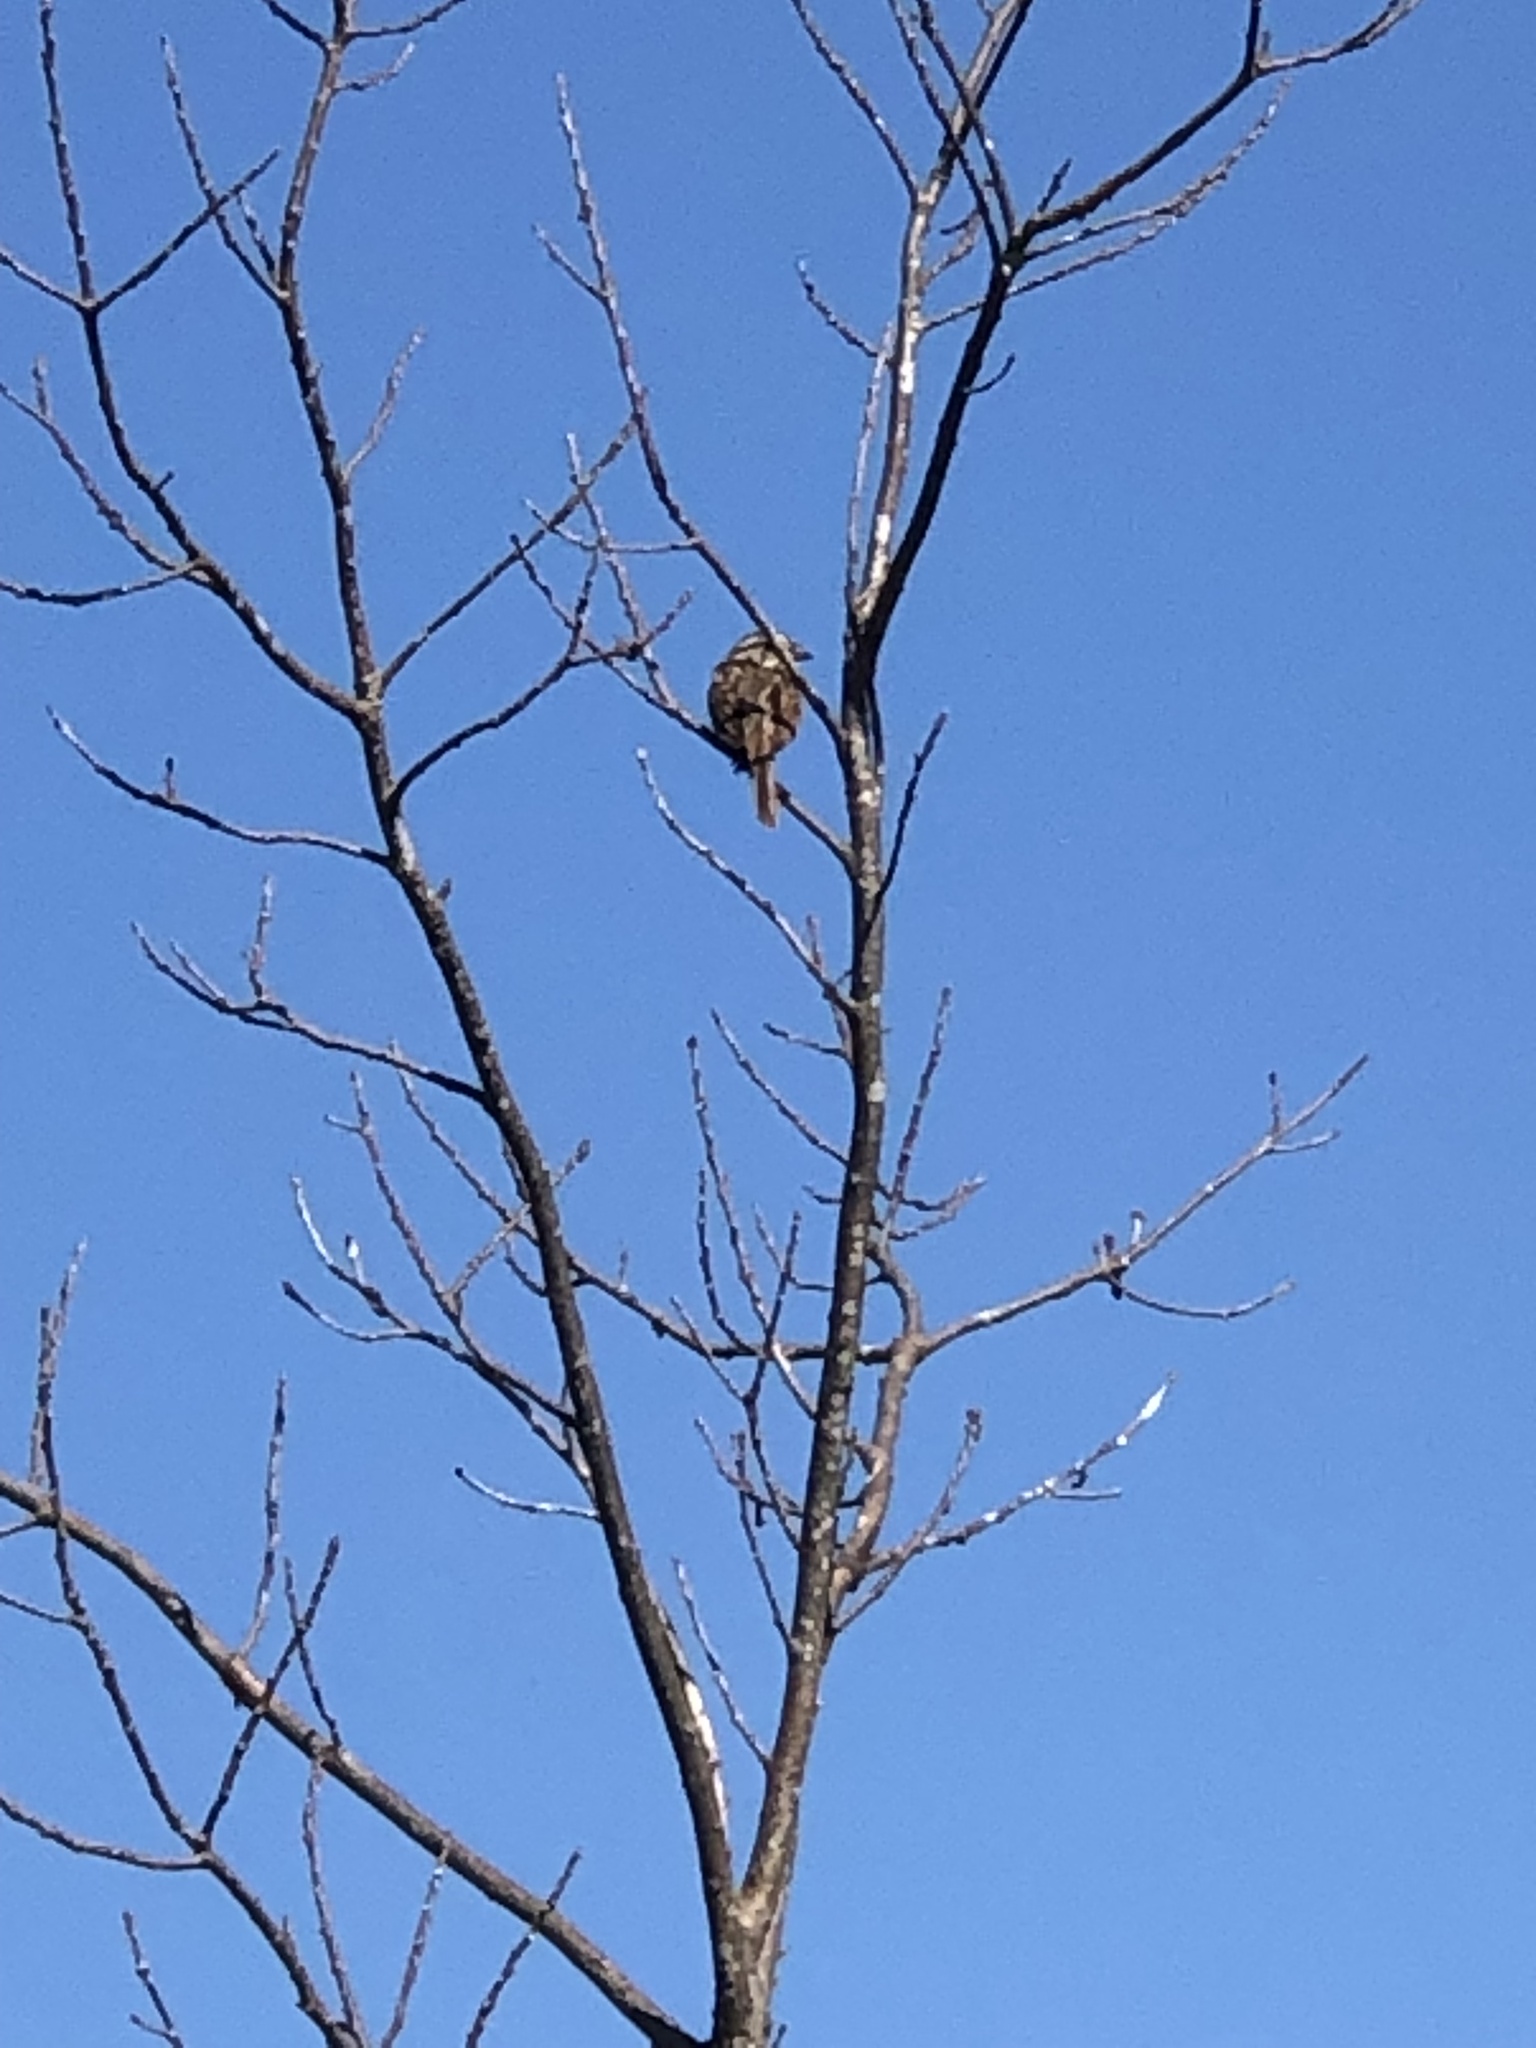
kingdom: Animalia
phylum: Chordata
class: Aves
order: Passeriformes
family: Passerellidae
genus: Melospiza
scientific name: Melospiza melodia
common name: Song sparrow
